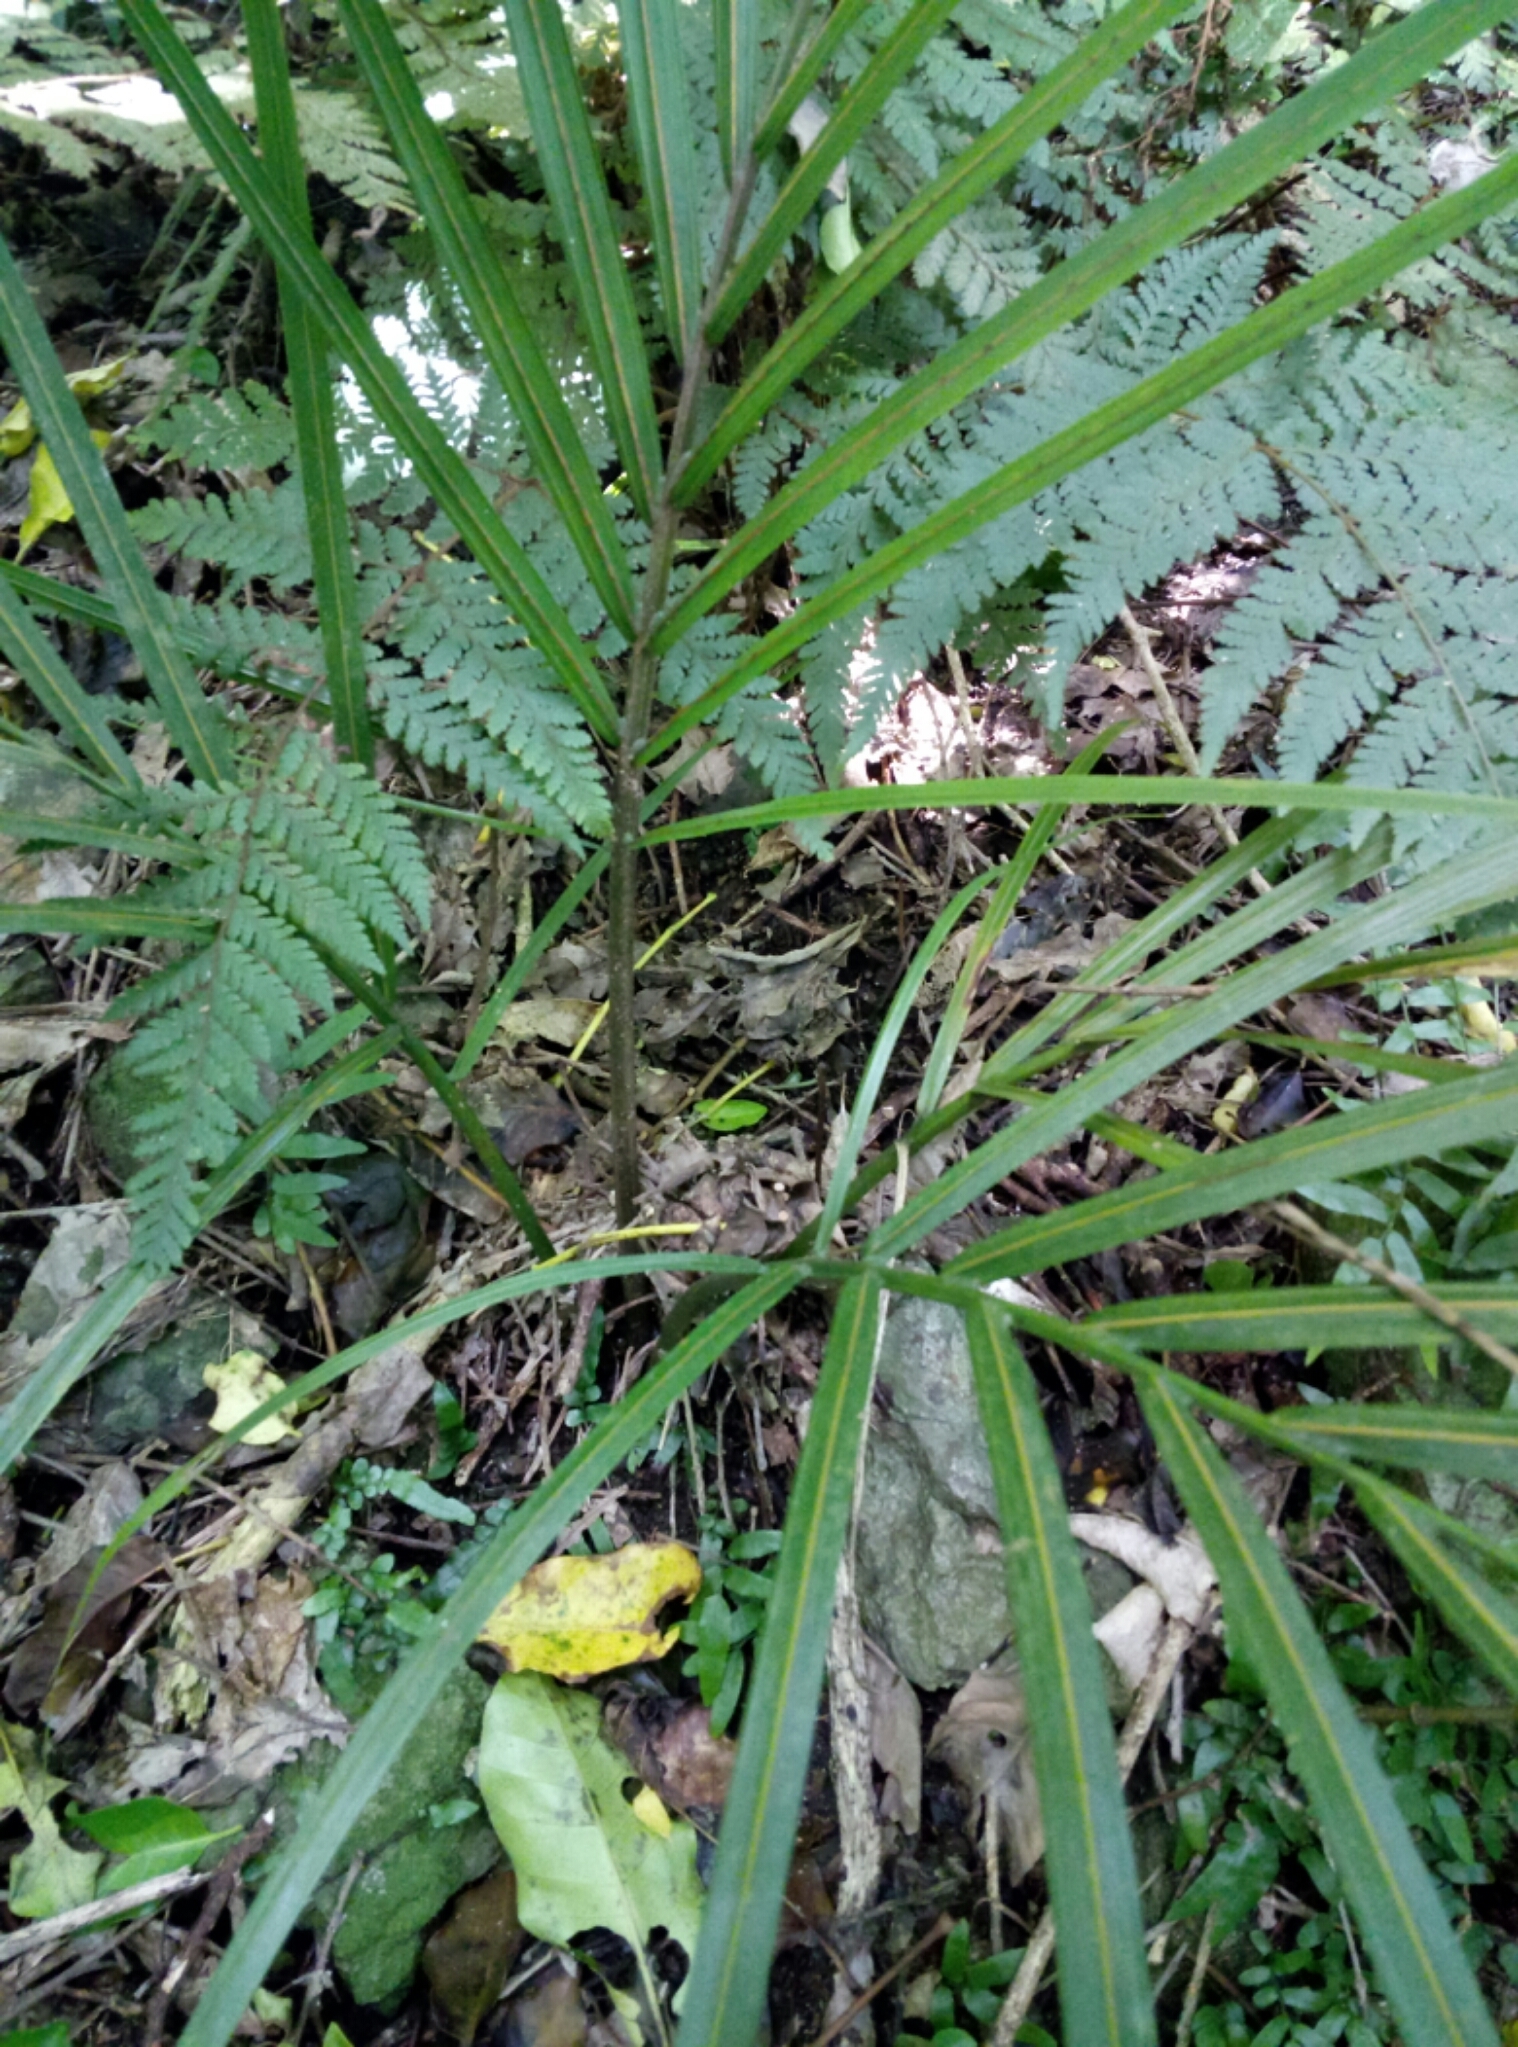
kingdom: Plantae
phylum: Tracheophyta
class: Liliopsida
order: Arecales
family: Arecaceae
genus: Rhopalostylis
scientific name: Rhopalostylis sapida
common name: Feather-duster palm
